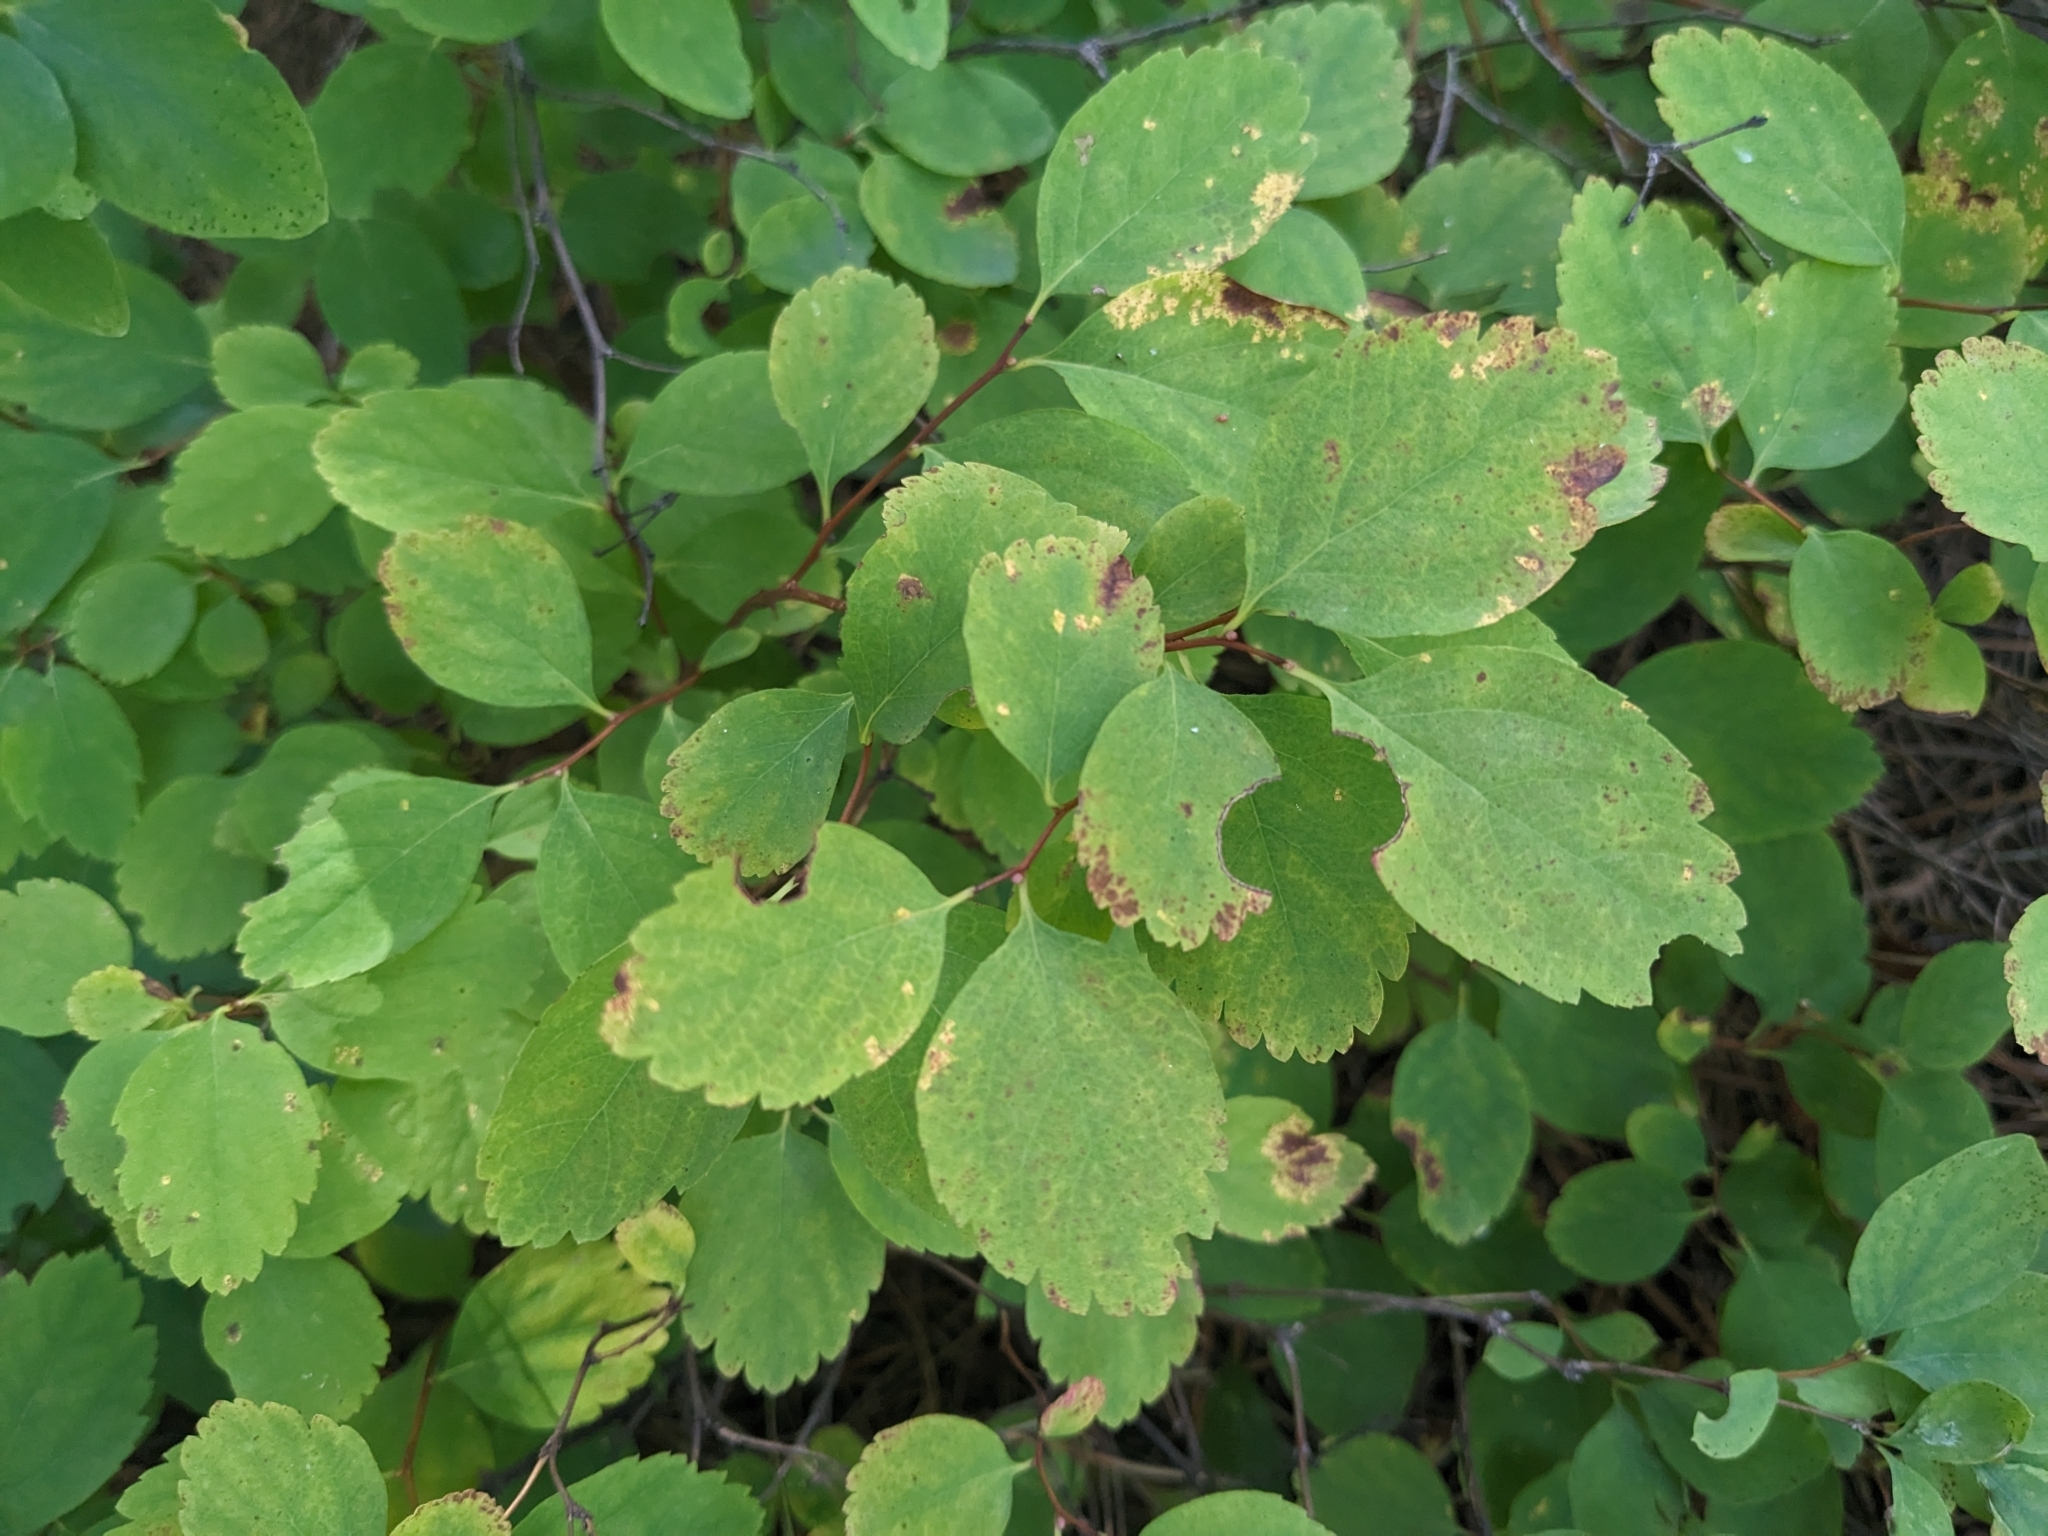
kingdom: Plantae
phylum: Tracheophyta
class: Magnoliopsida
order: Rosales
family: Rosaceae
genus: Spiraea
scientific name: Spiraea lucida
